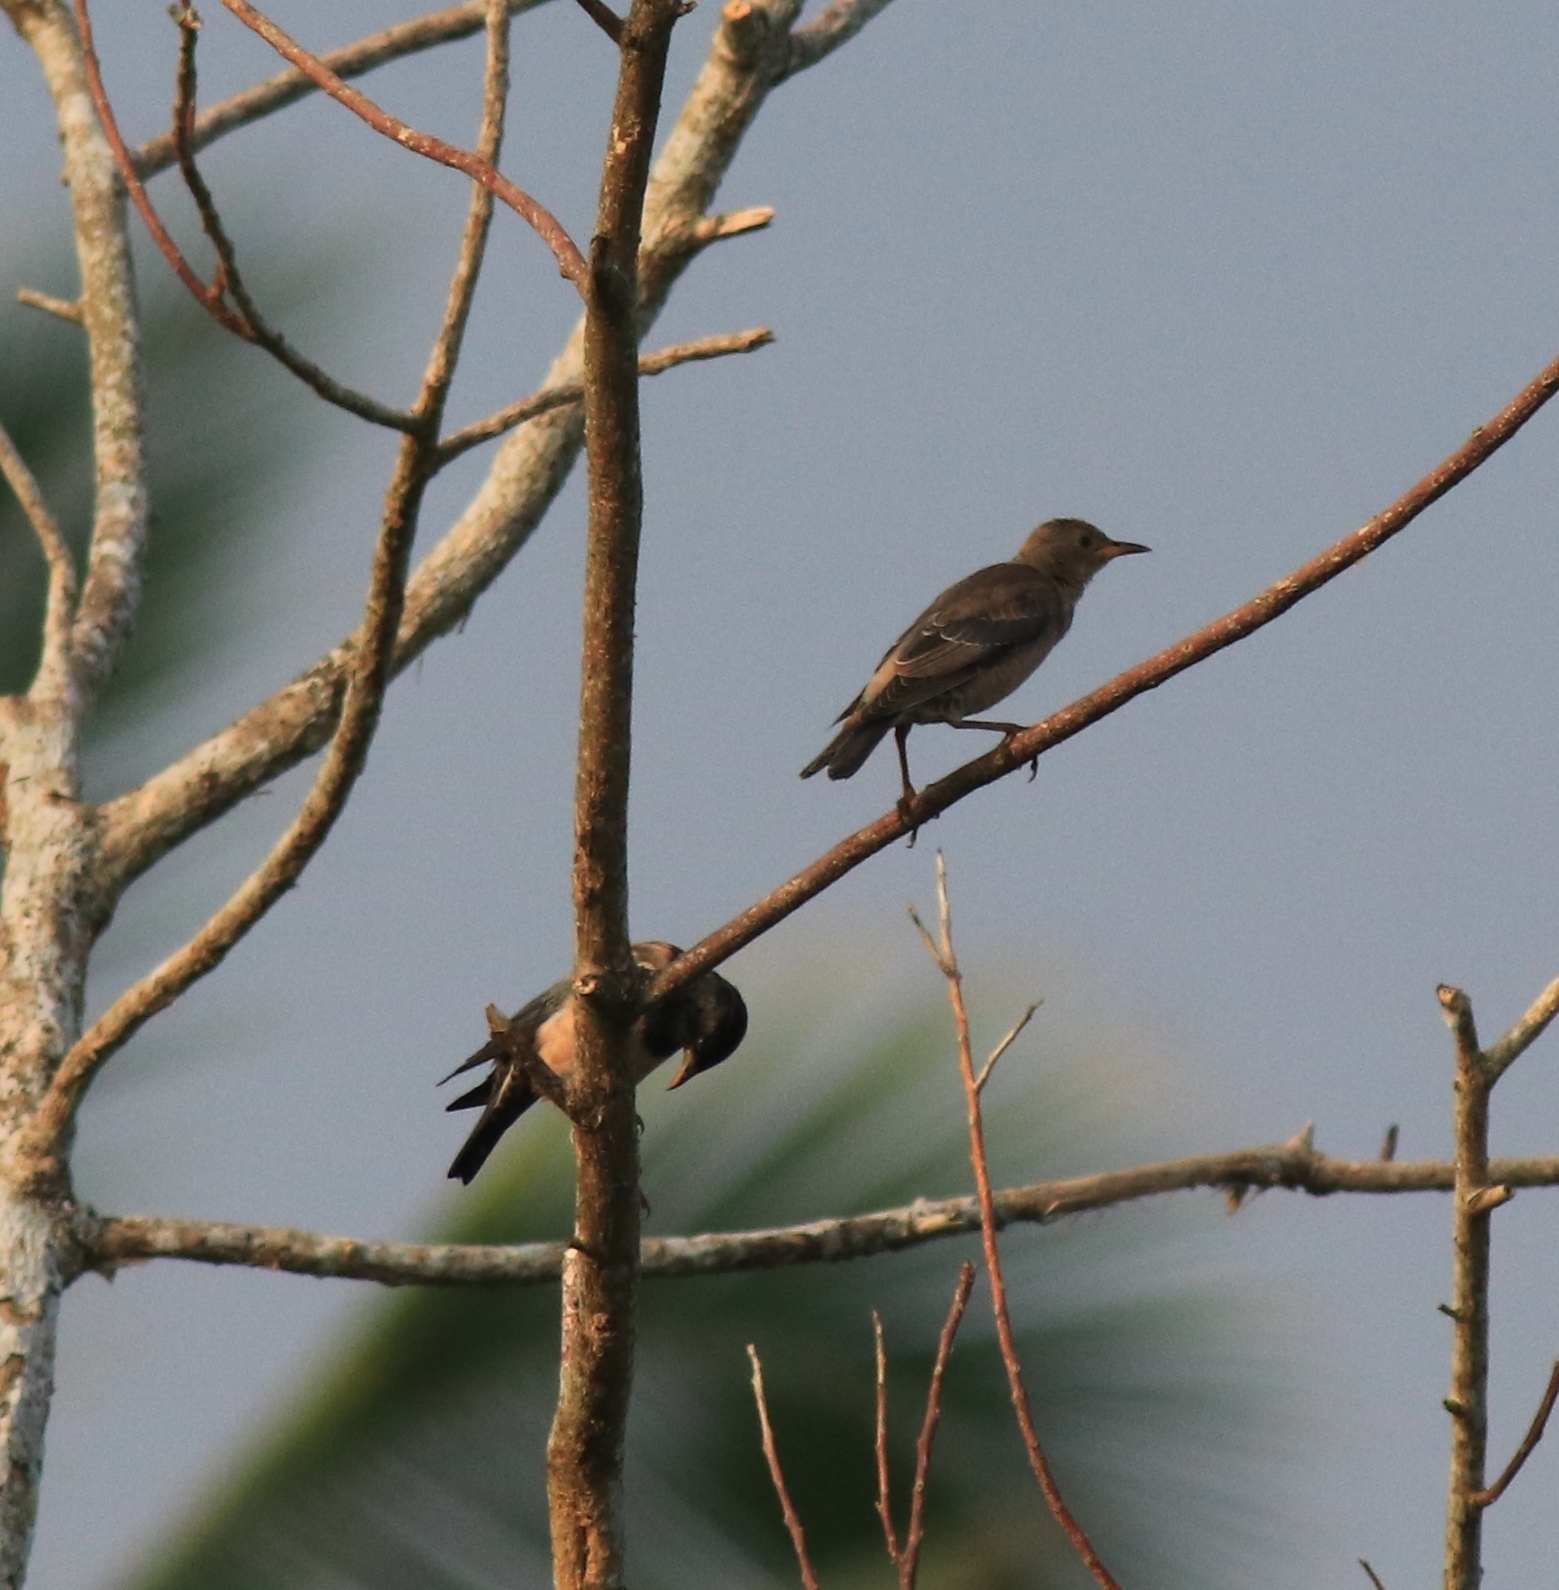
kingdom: Animalia
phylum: Chordata
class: Aves
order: Passeriformes
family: Sturnidae
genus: Pastor
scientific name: Pastor roseus
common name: Rosy starling
